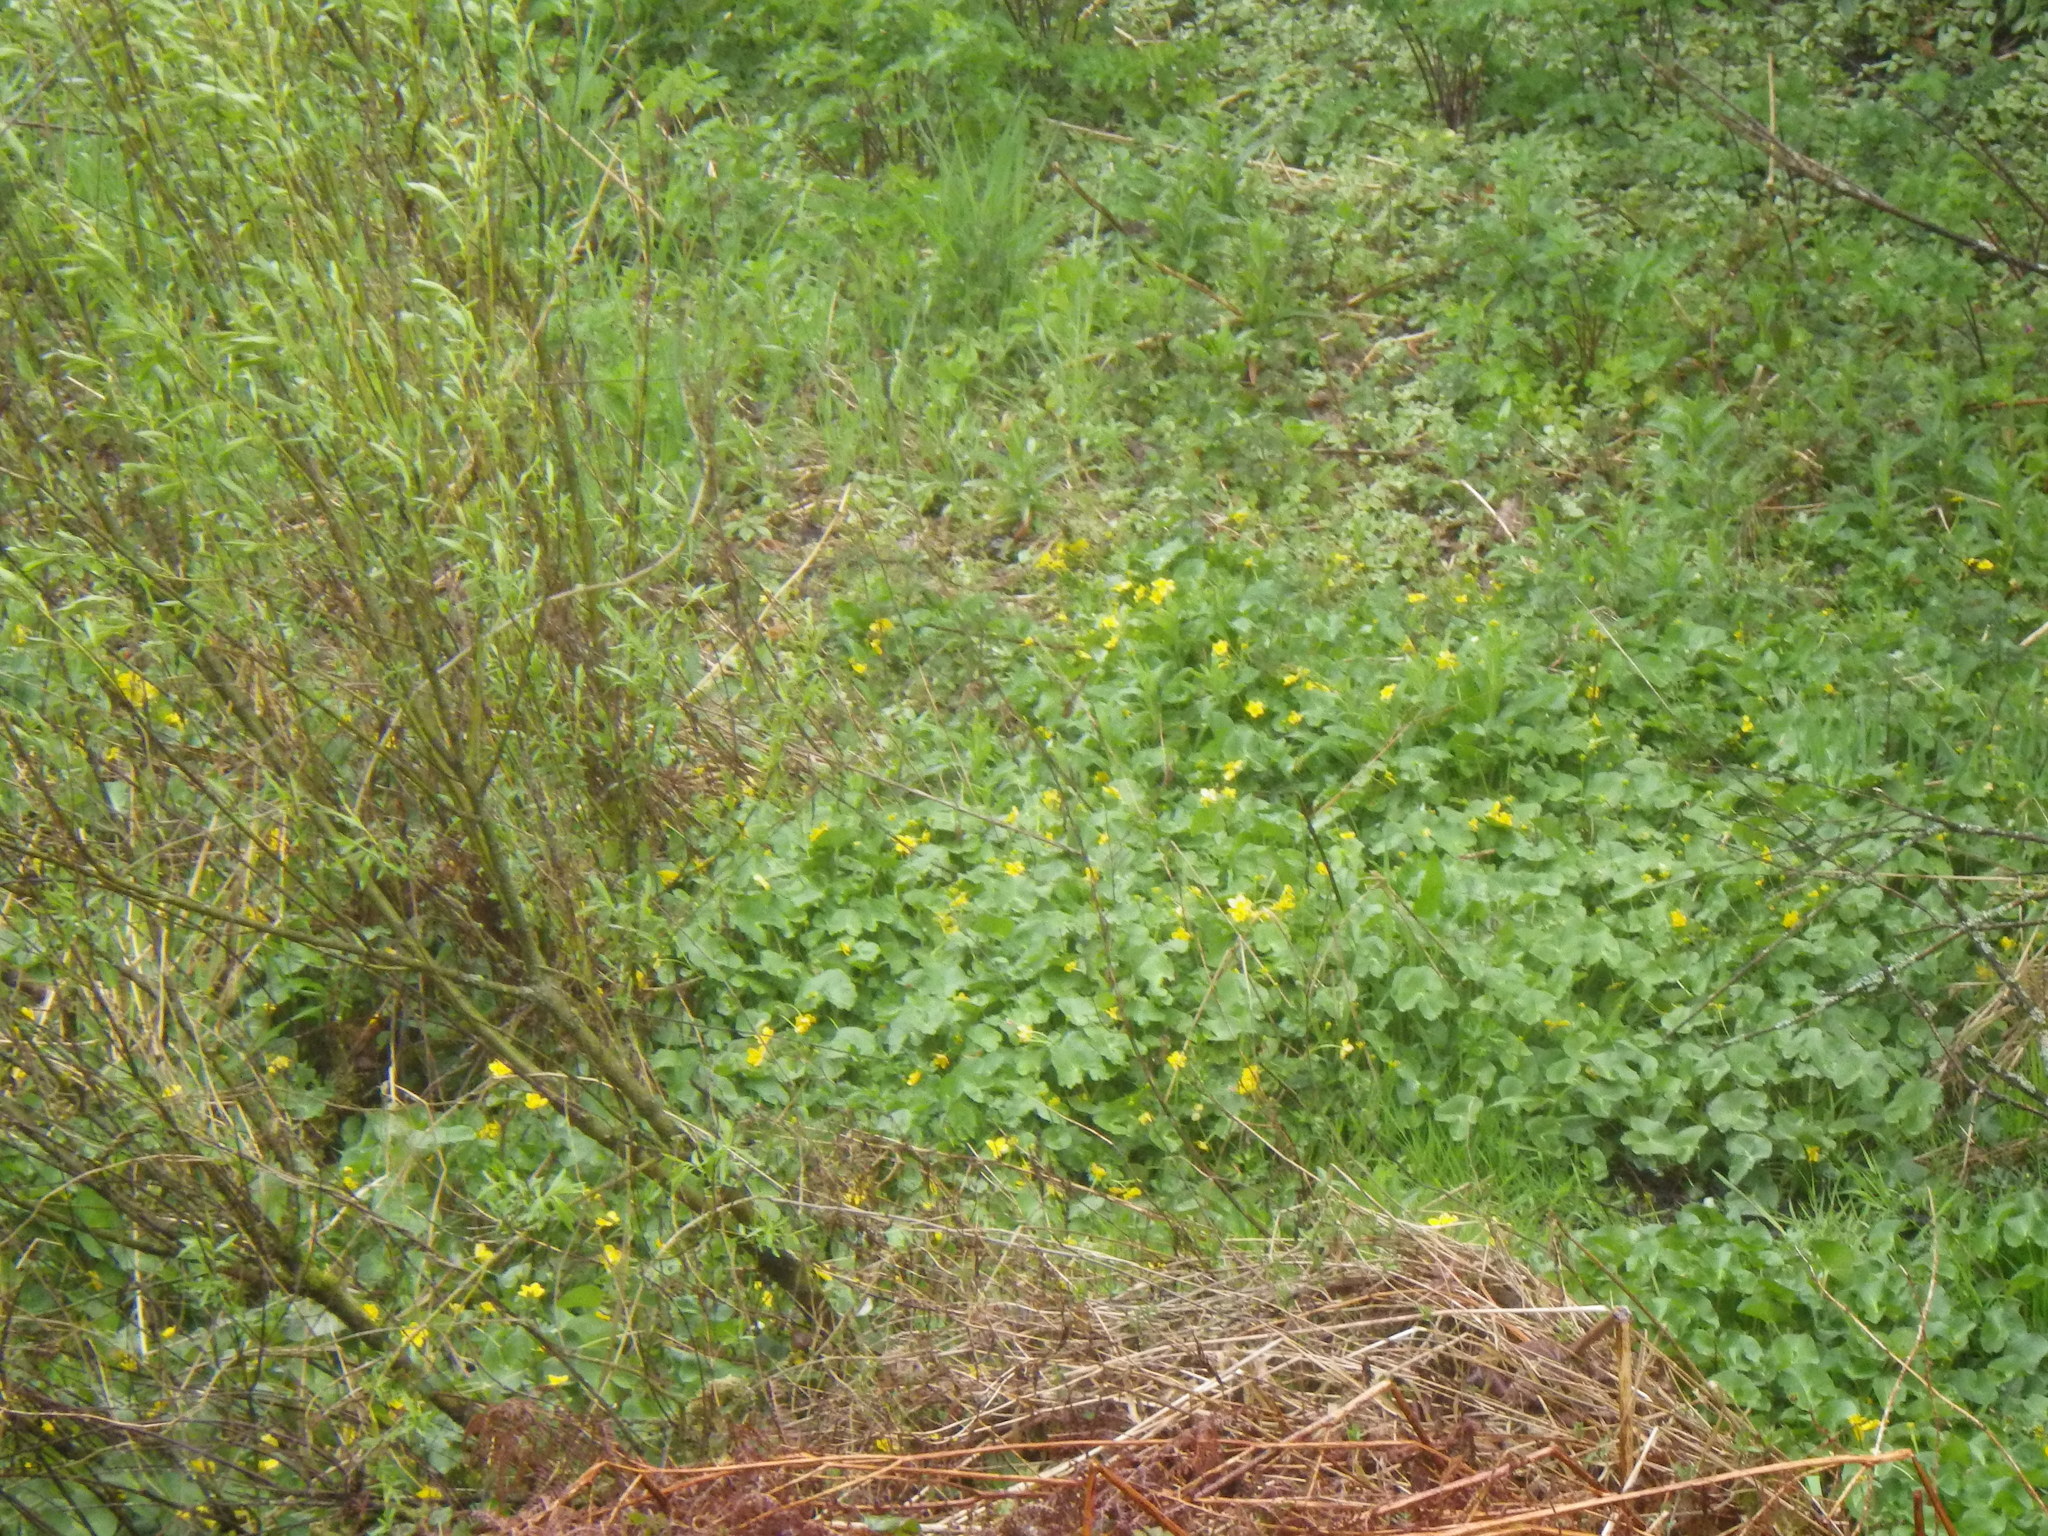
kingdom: Plantae
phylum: Tracheophyta
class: Magnoliopsida
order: Ranunculales
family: Ranunculaceae
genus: Caltha
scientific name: Caltha palustris
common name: Marsh marigold
